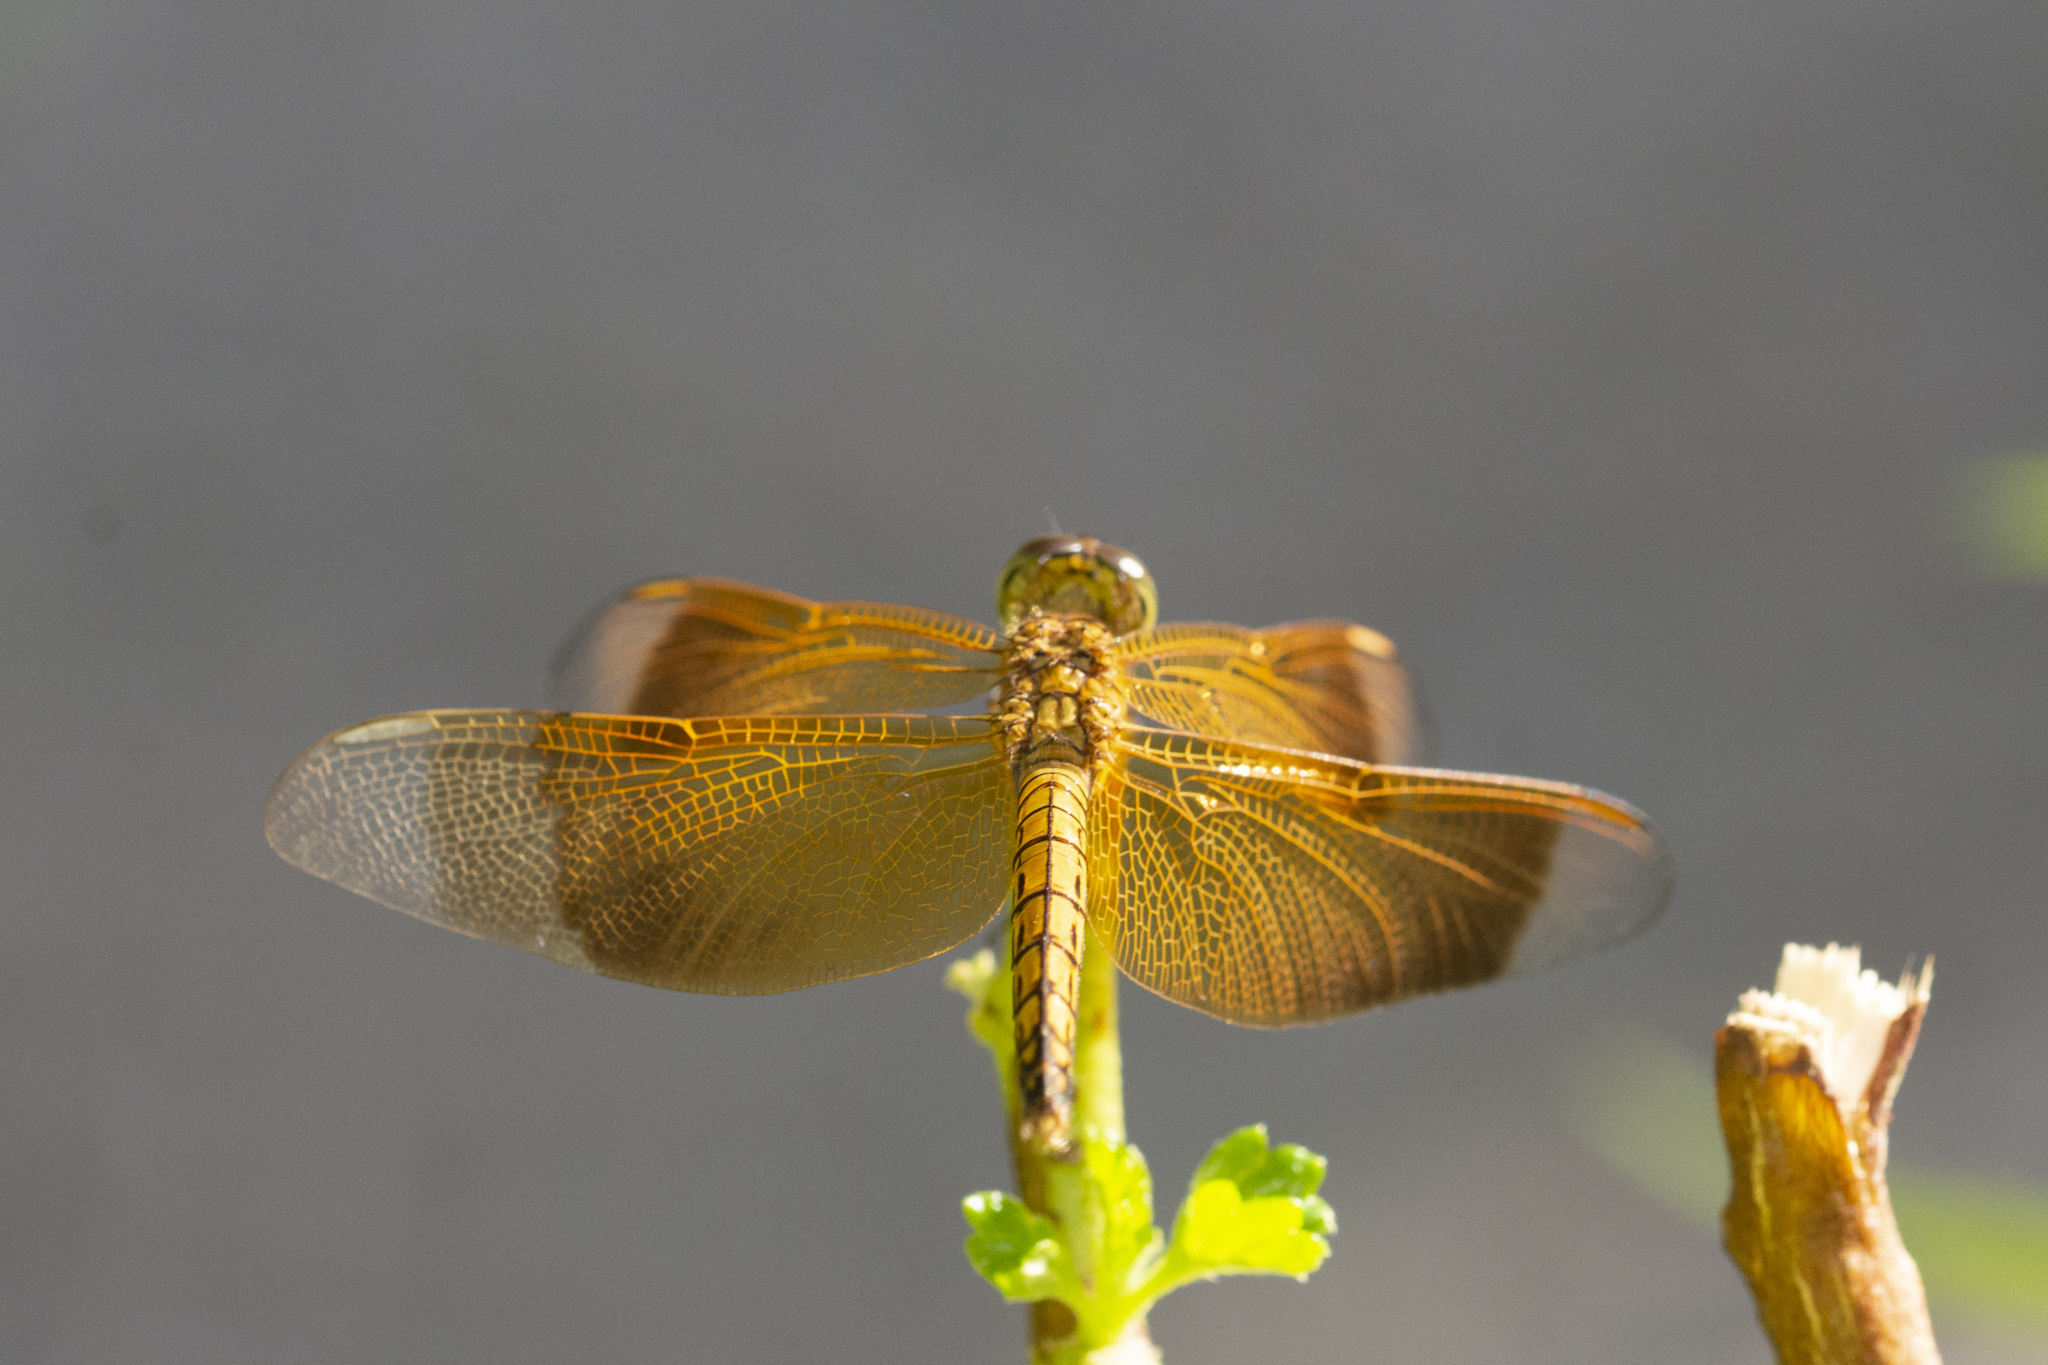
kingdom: Animalia
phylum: Arthropoda
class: Insecta
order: Odonata
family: Libellulidae
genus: Neurothemis
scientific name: Neurothemis terminata
